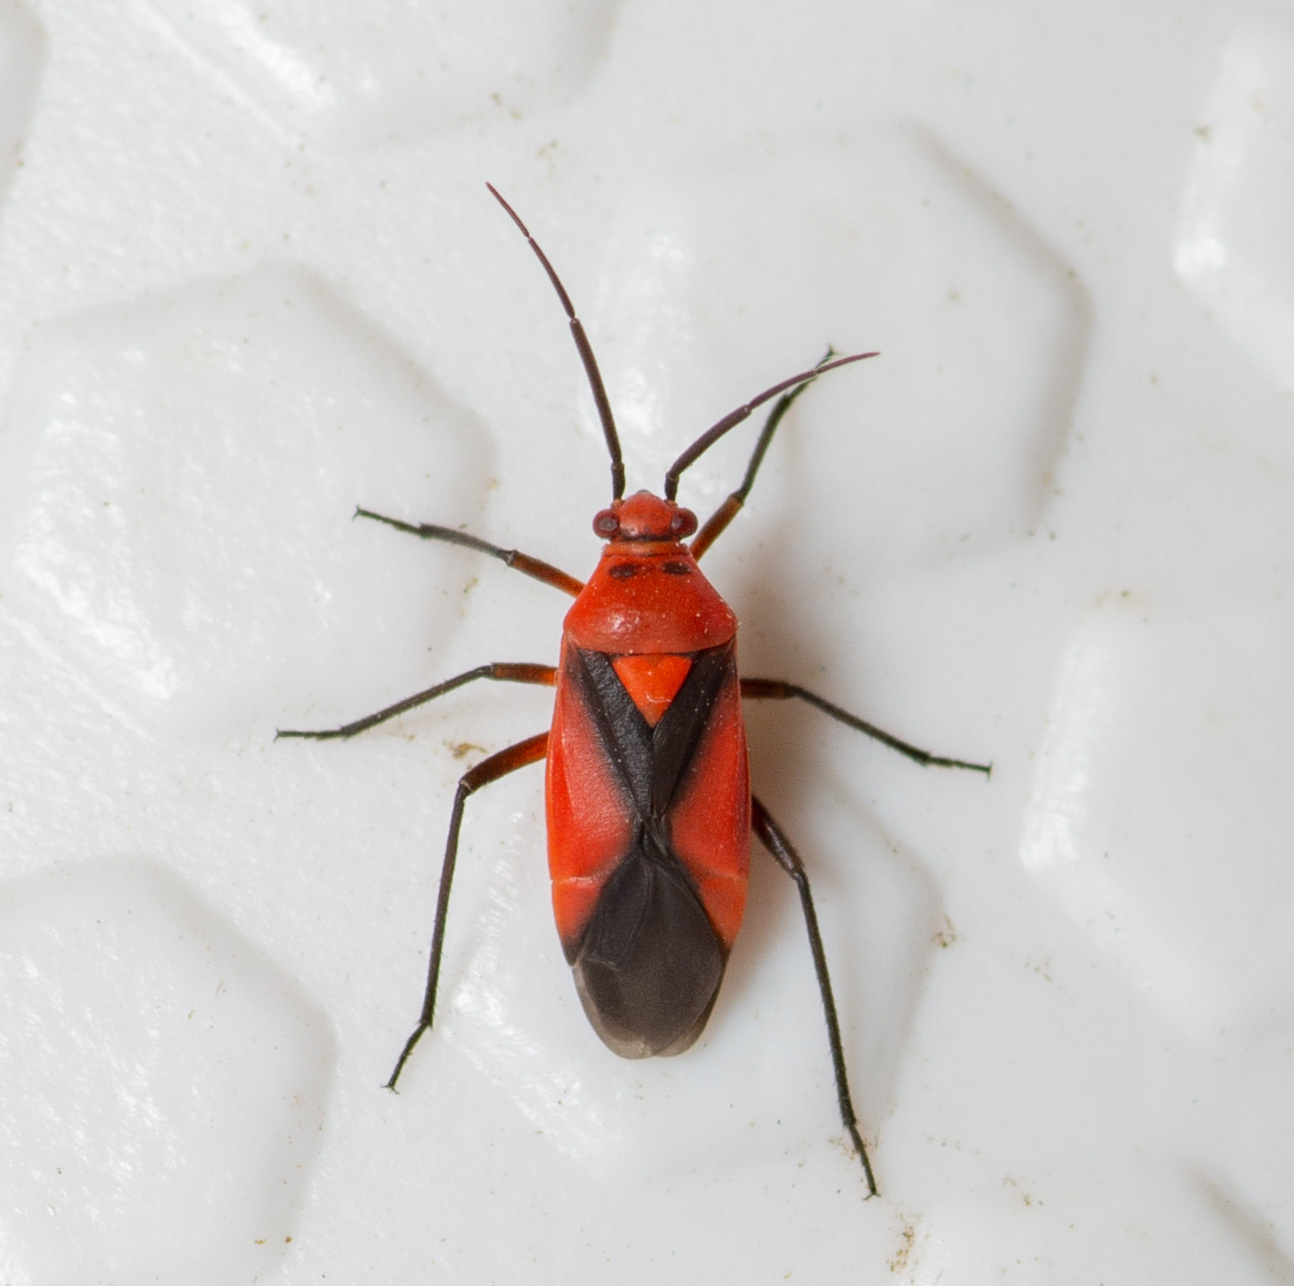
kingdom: Animalia
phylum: Arthropoda
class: Insecta
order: Hemiptera
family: Miridae
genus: Oncerometopus
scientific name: Oncerometopus nigriclavus
